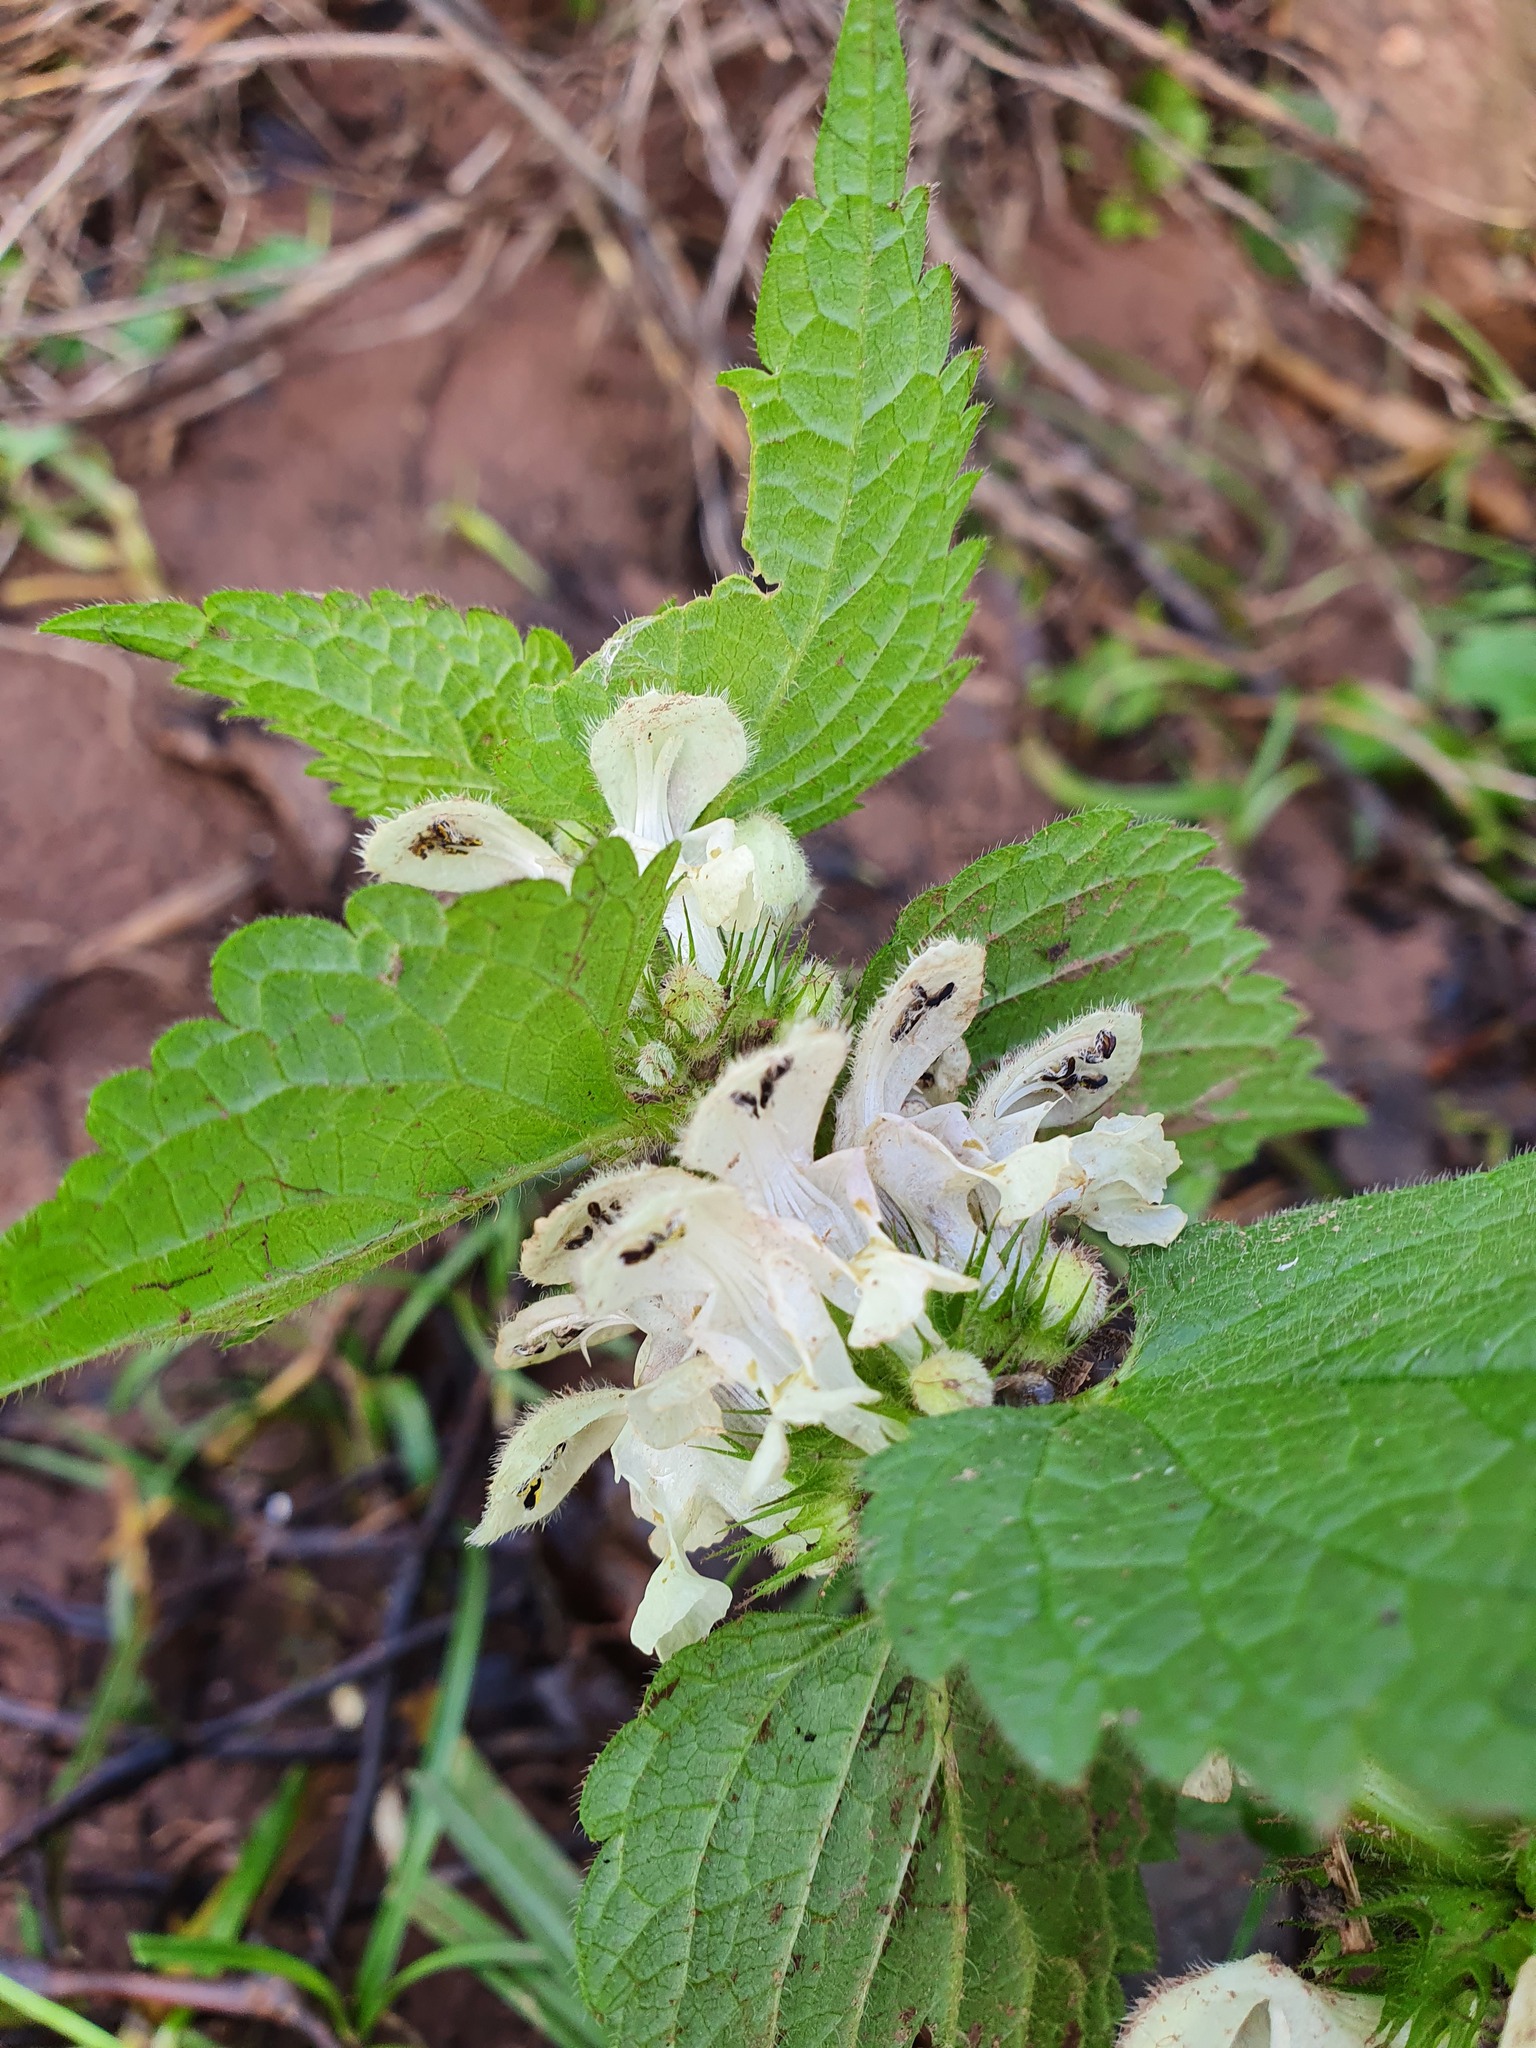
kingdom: Plantae
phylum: Tracheophyta
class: Magnoliopsida
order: Lamiales
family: Lamiaceae
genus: Lamium
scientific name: Lamium album
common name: White dead-nettle
